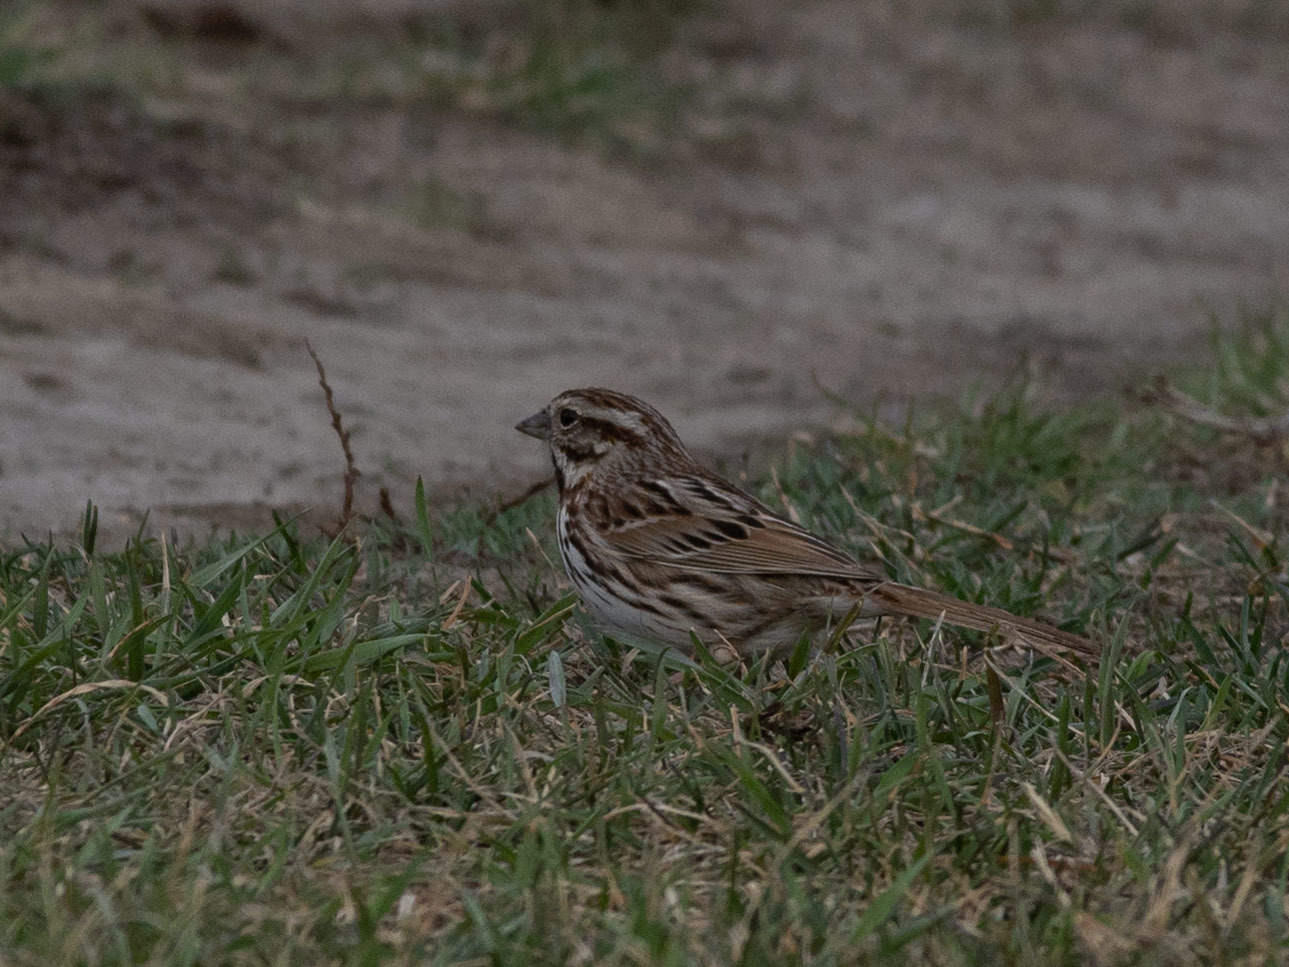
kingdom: Animalia
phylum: Chordata
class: Aves
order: Passeriformes
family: Passerellidae
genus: Melospiza
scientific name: Melospiza melodia
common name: Song sparrow
